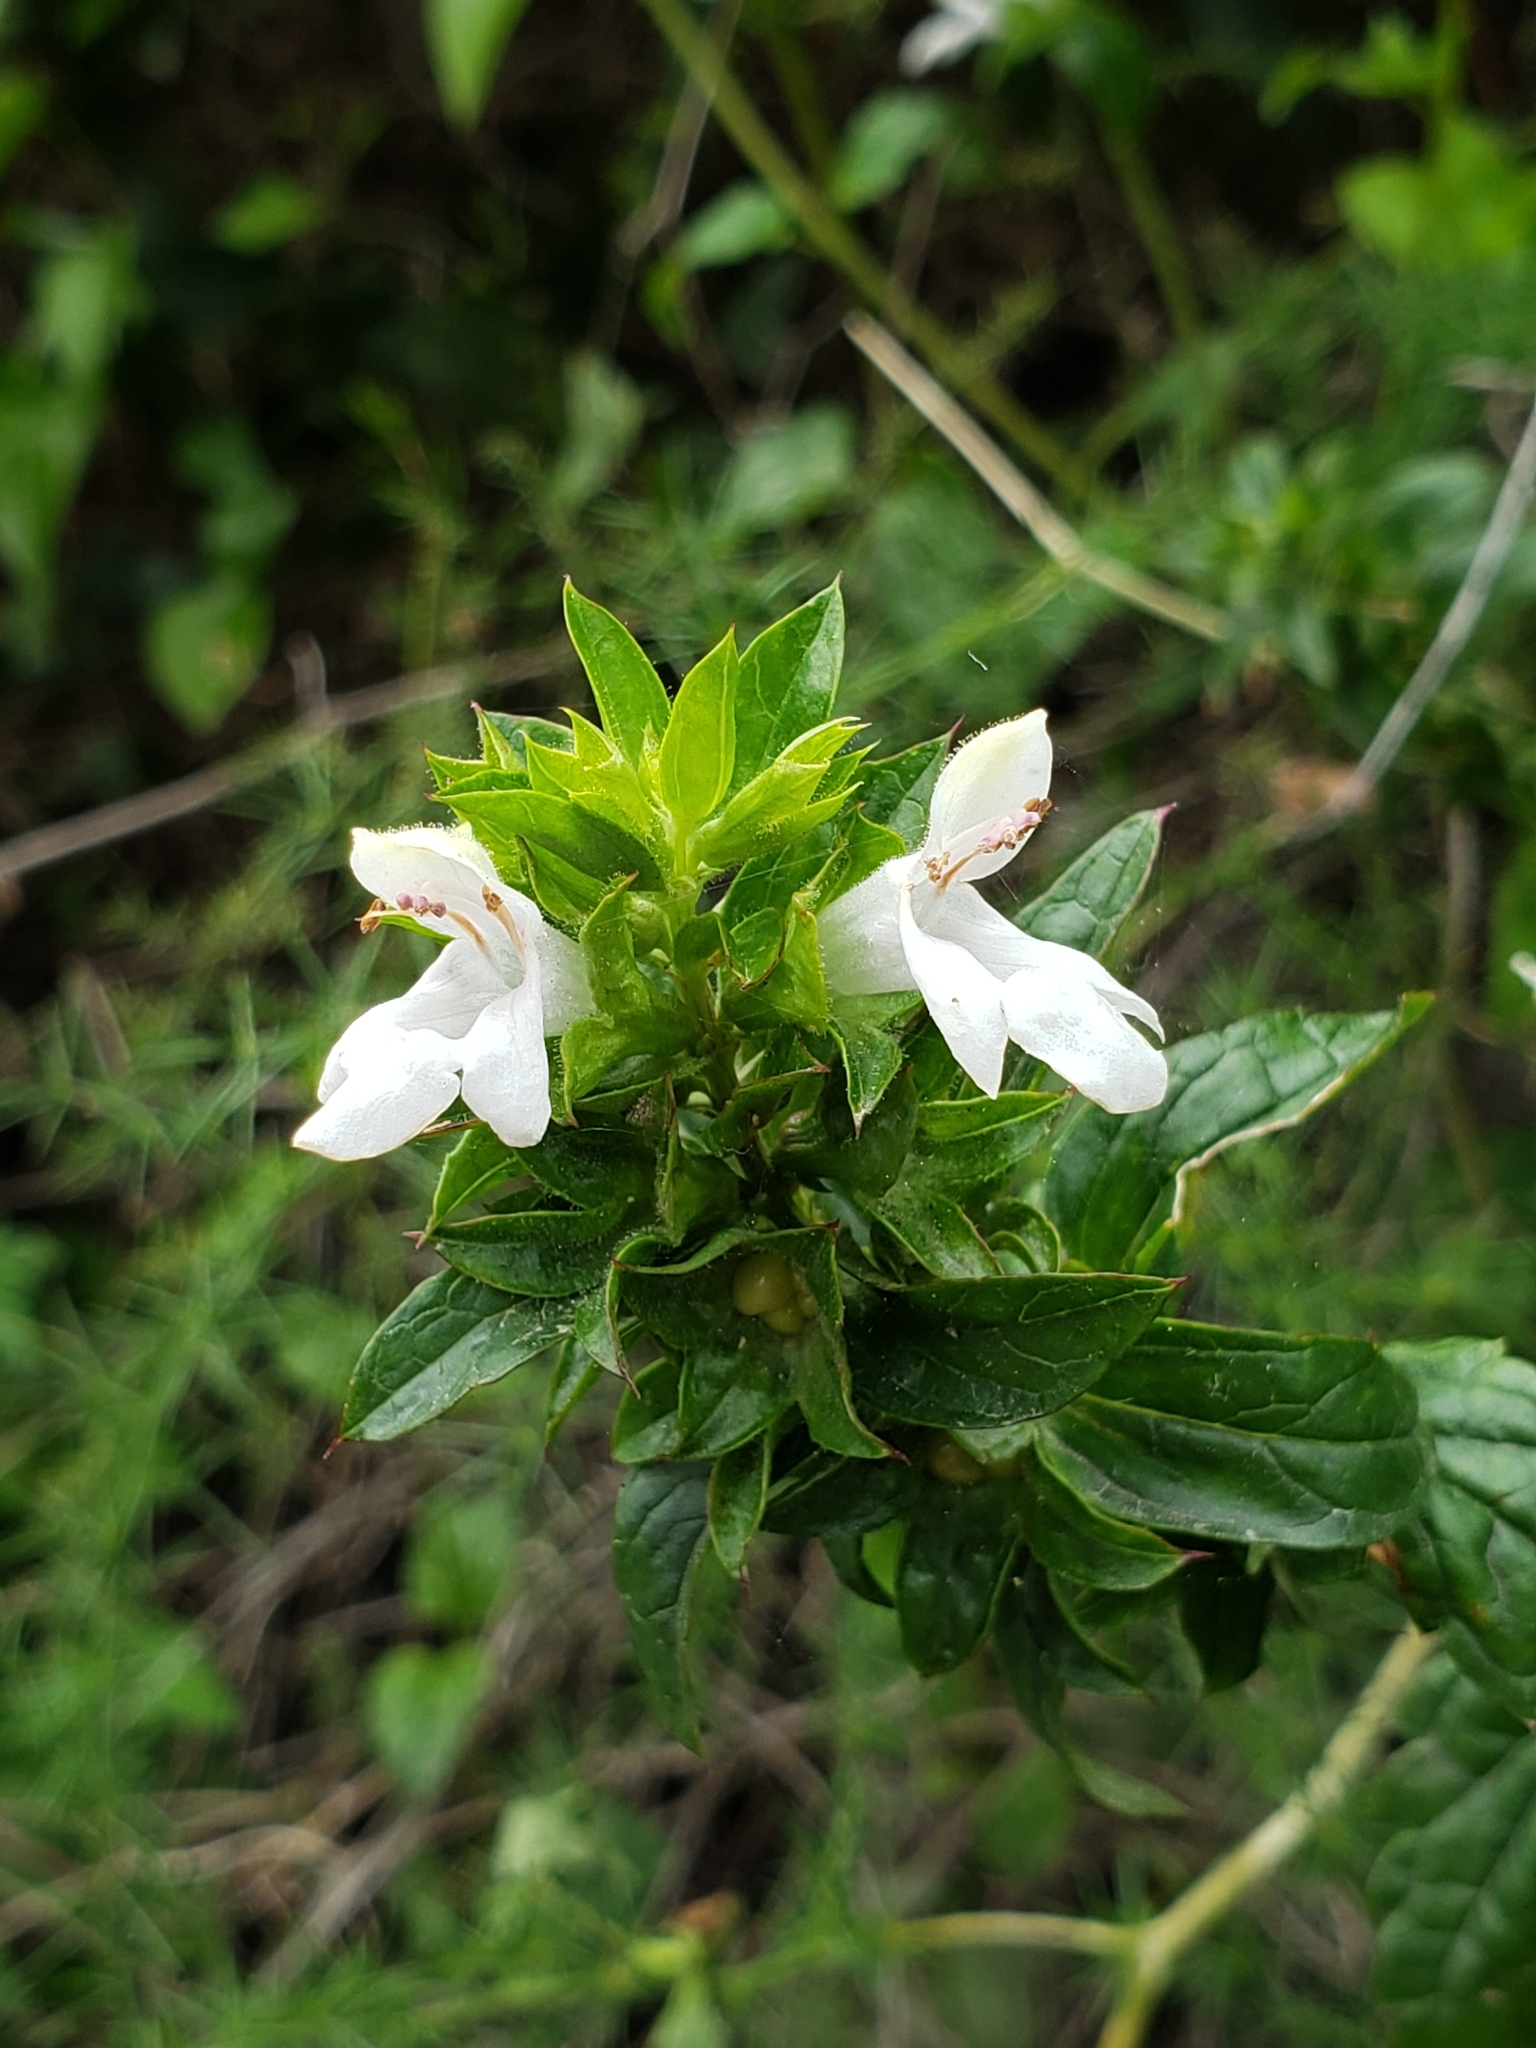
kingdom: Plantae
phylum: Tracheophyta
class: Magnoliopsida
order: Lamiales
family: Lamiaceae
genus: Prasium
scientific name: Prasium majus
